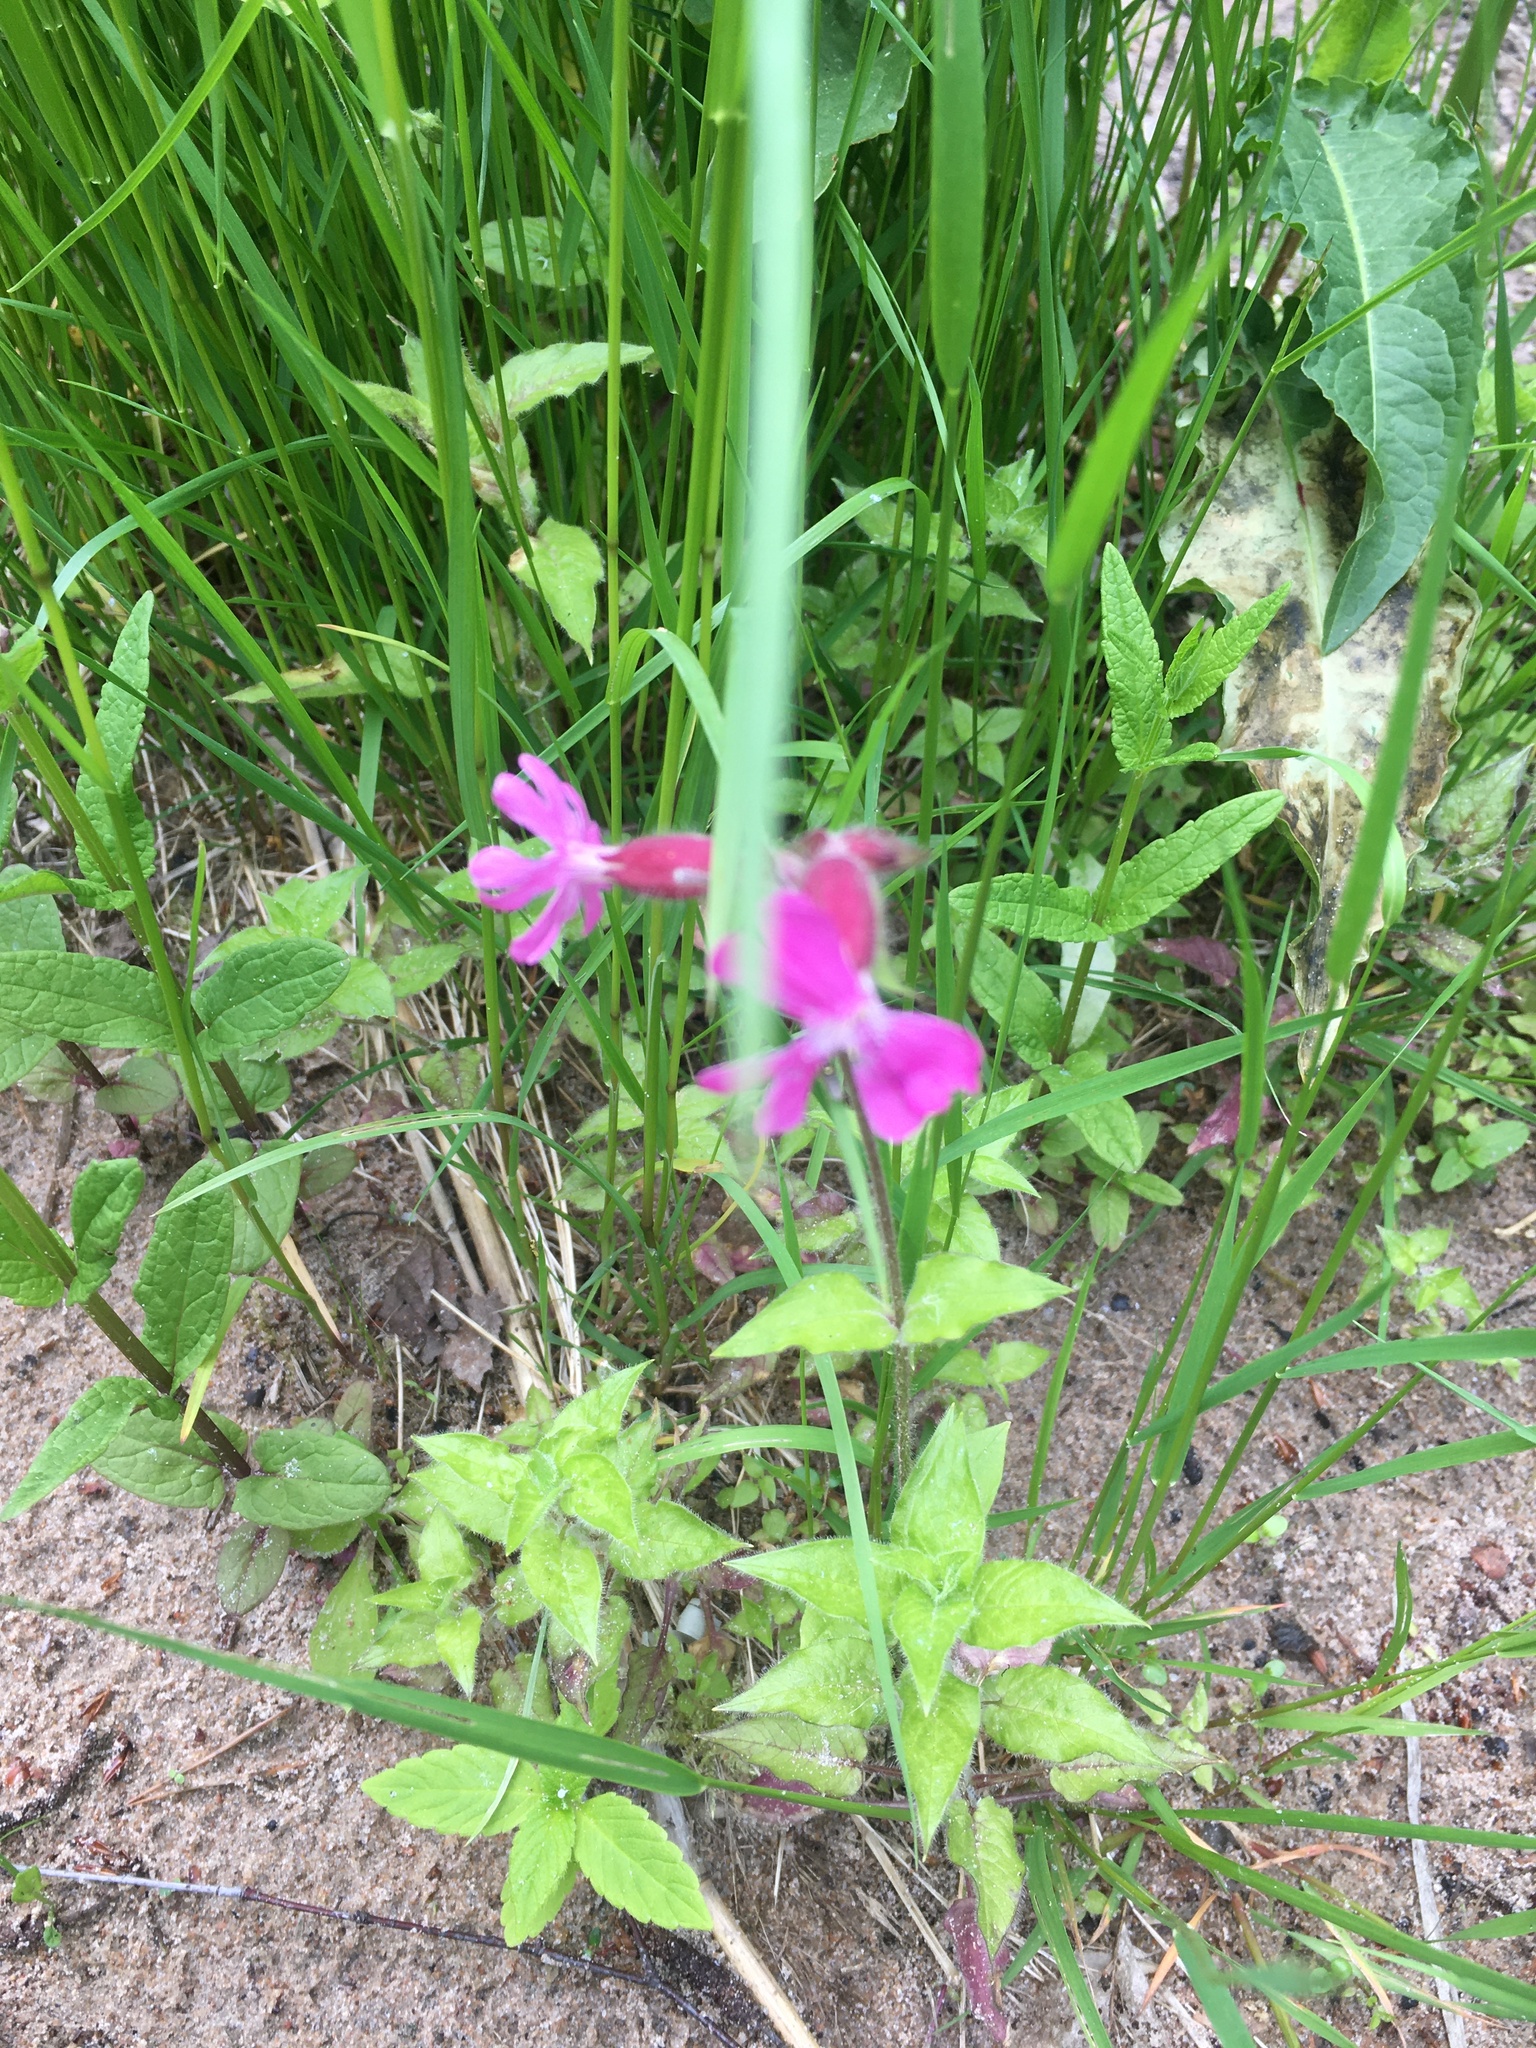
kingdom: Plantae
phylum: Tracheophyta
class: Magnoliopsida
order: Caryophyllales
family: Caryophyllaceae
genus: Silene
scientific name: Silene dioica
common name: Red campion
